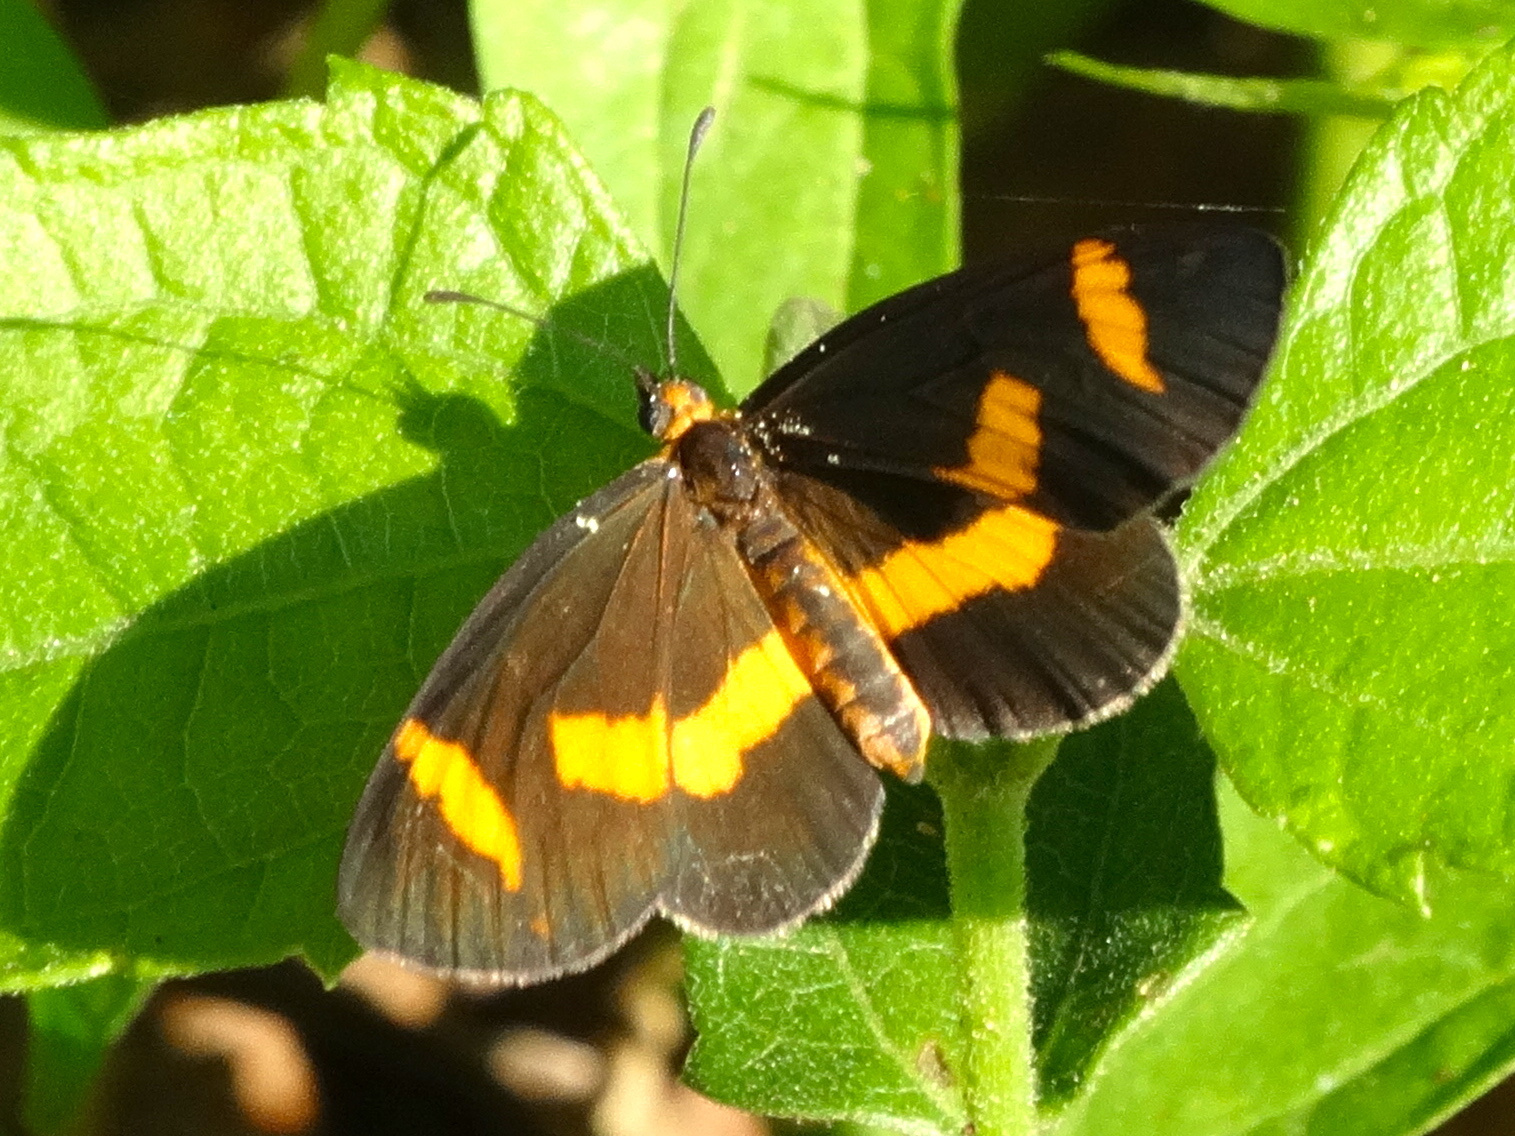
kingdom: Animalia
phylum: Arthropoda
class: Insecta
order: Lepidoptera
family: Nymphalidae
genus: Microtia
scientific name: Microtia elva
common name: Elf
